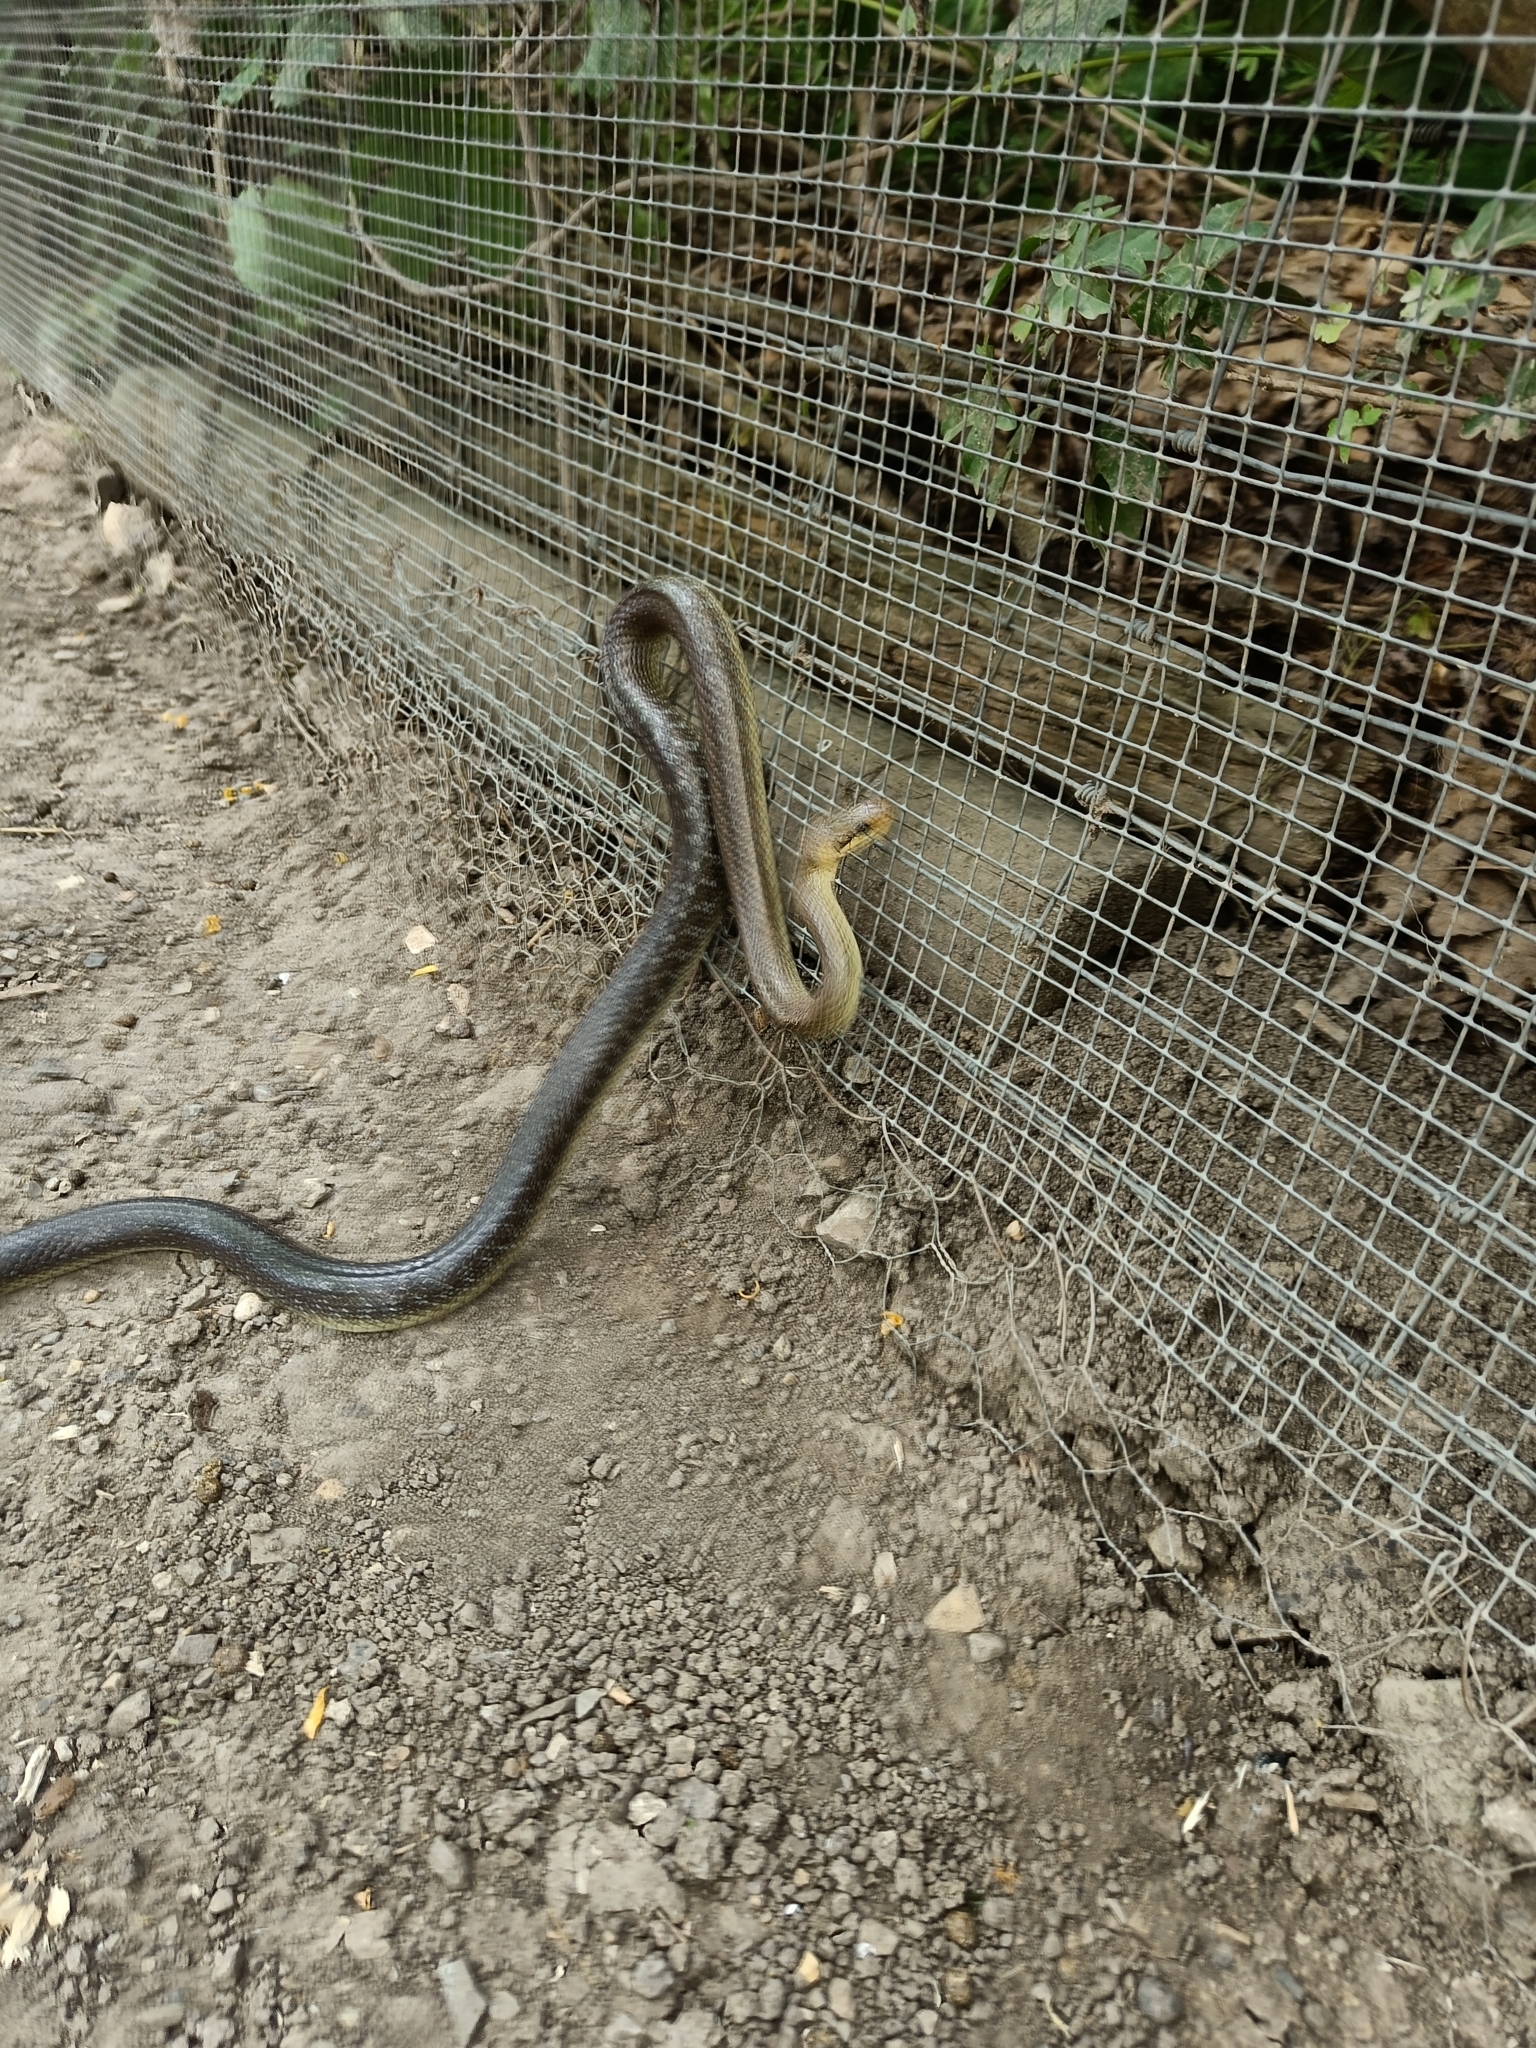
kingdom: Animalia
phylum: Chordata
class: Squamata
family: Colubridae
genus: Zamenis
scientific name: Zamenis longissimus
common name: Aesculapean snake
